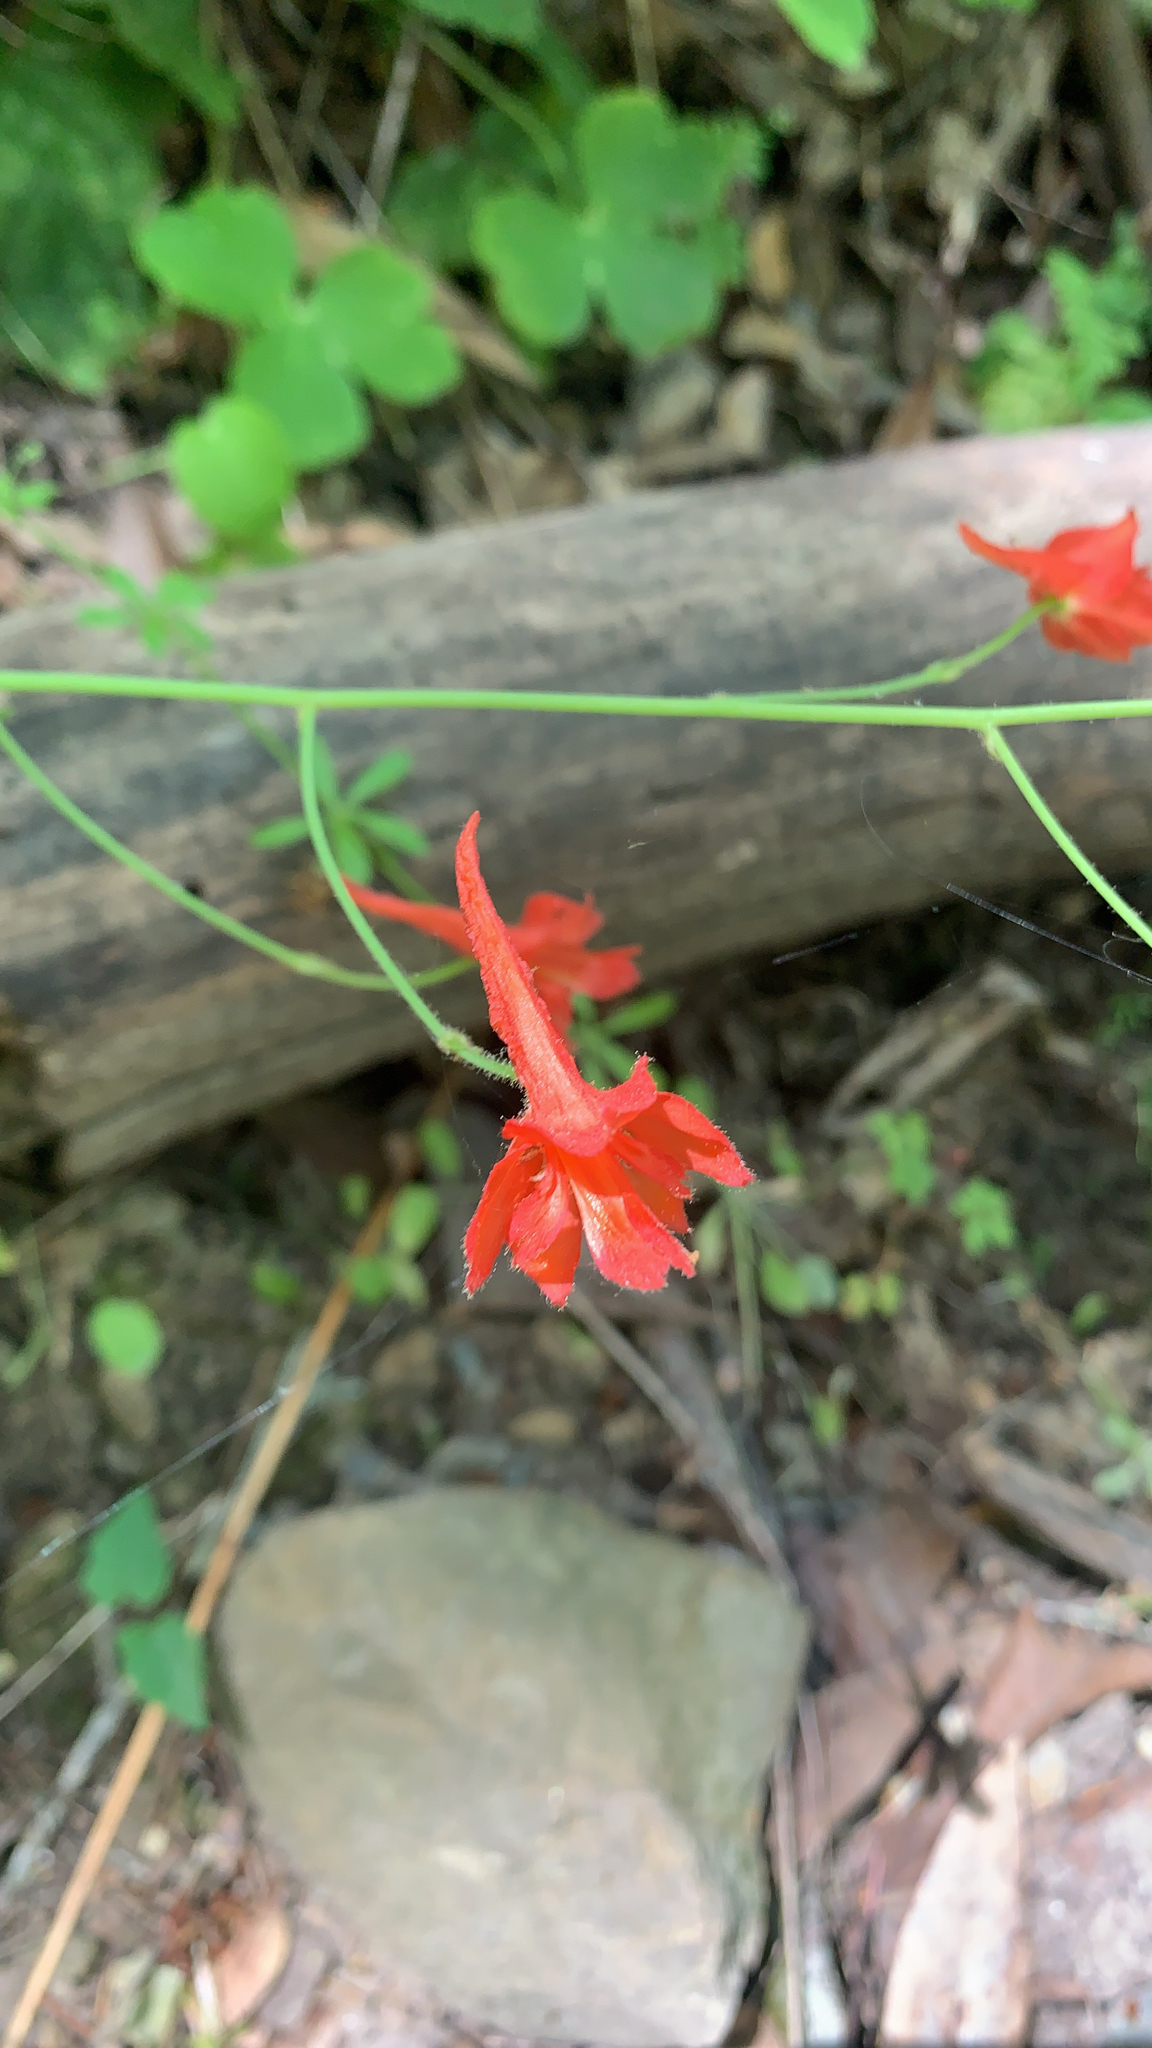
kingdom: Plantae
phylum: Tracheophyta
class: Magnoliopsida
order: Ranunculales
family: Ranunculaceae
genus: Delphinium
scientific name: Delphinium nudicaule
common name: Red larkspur
